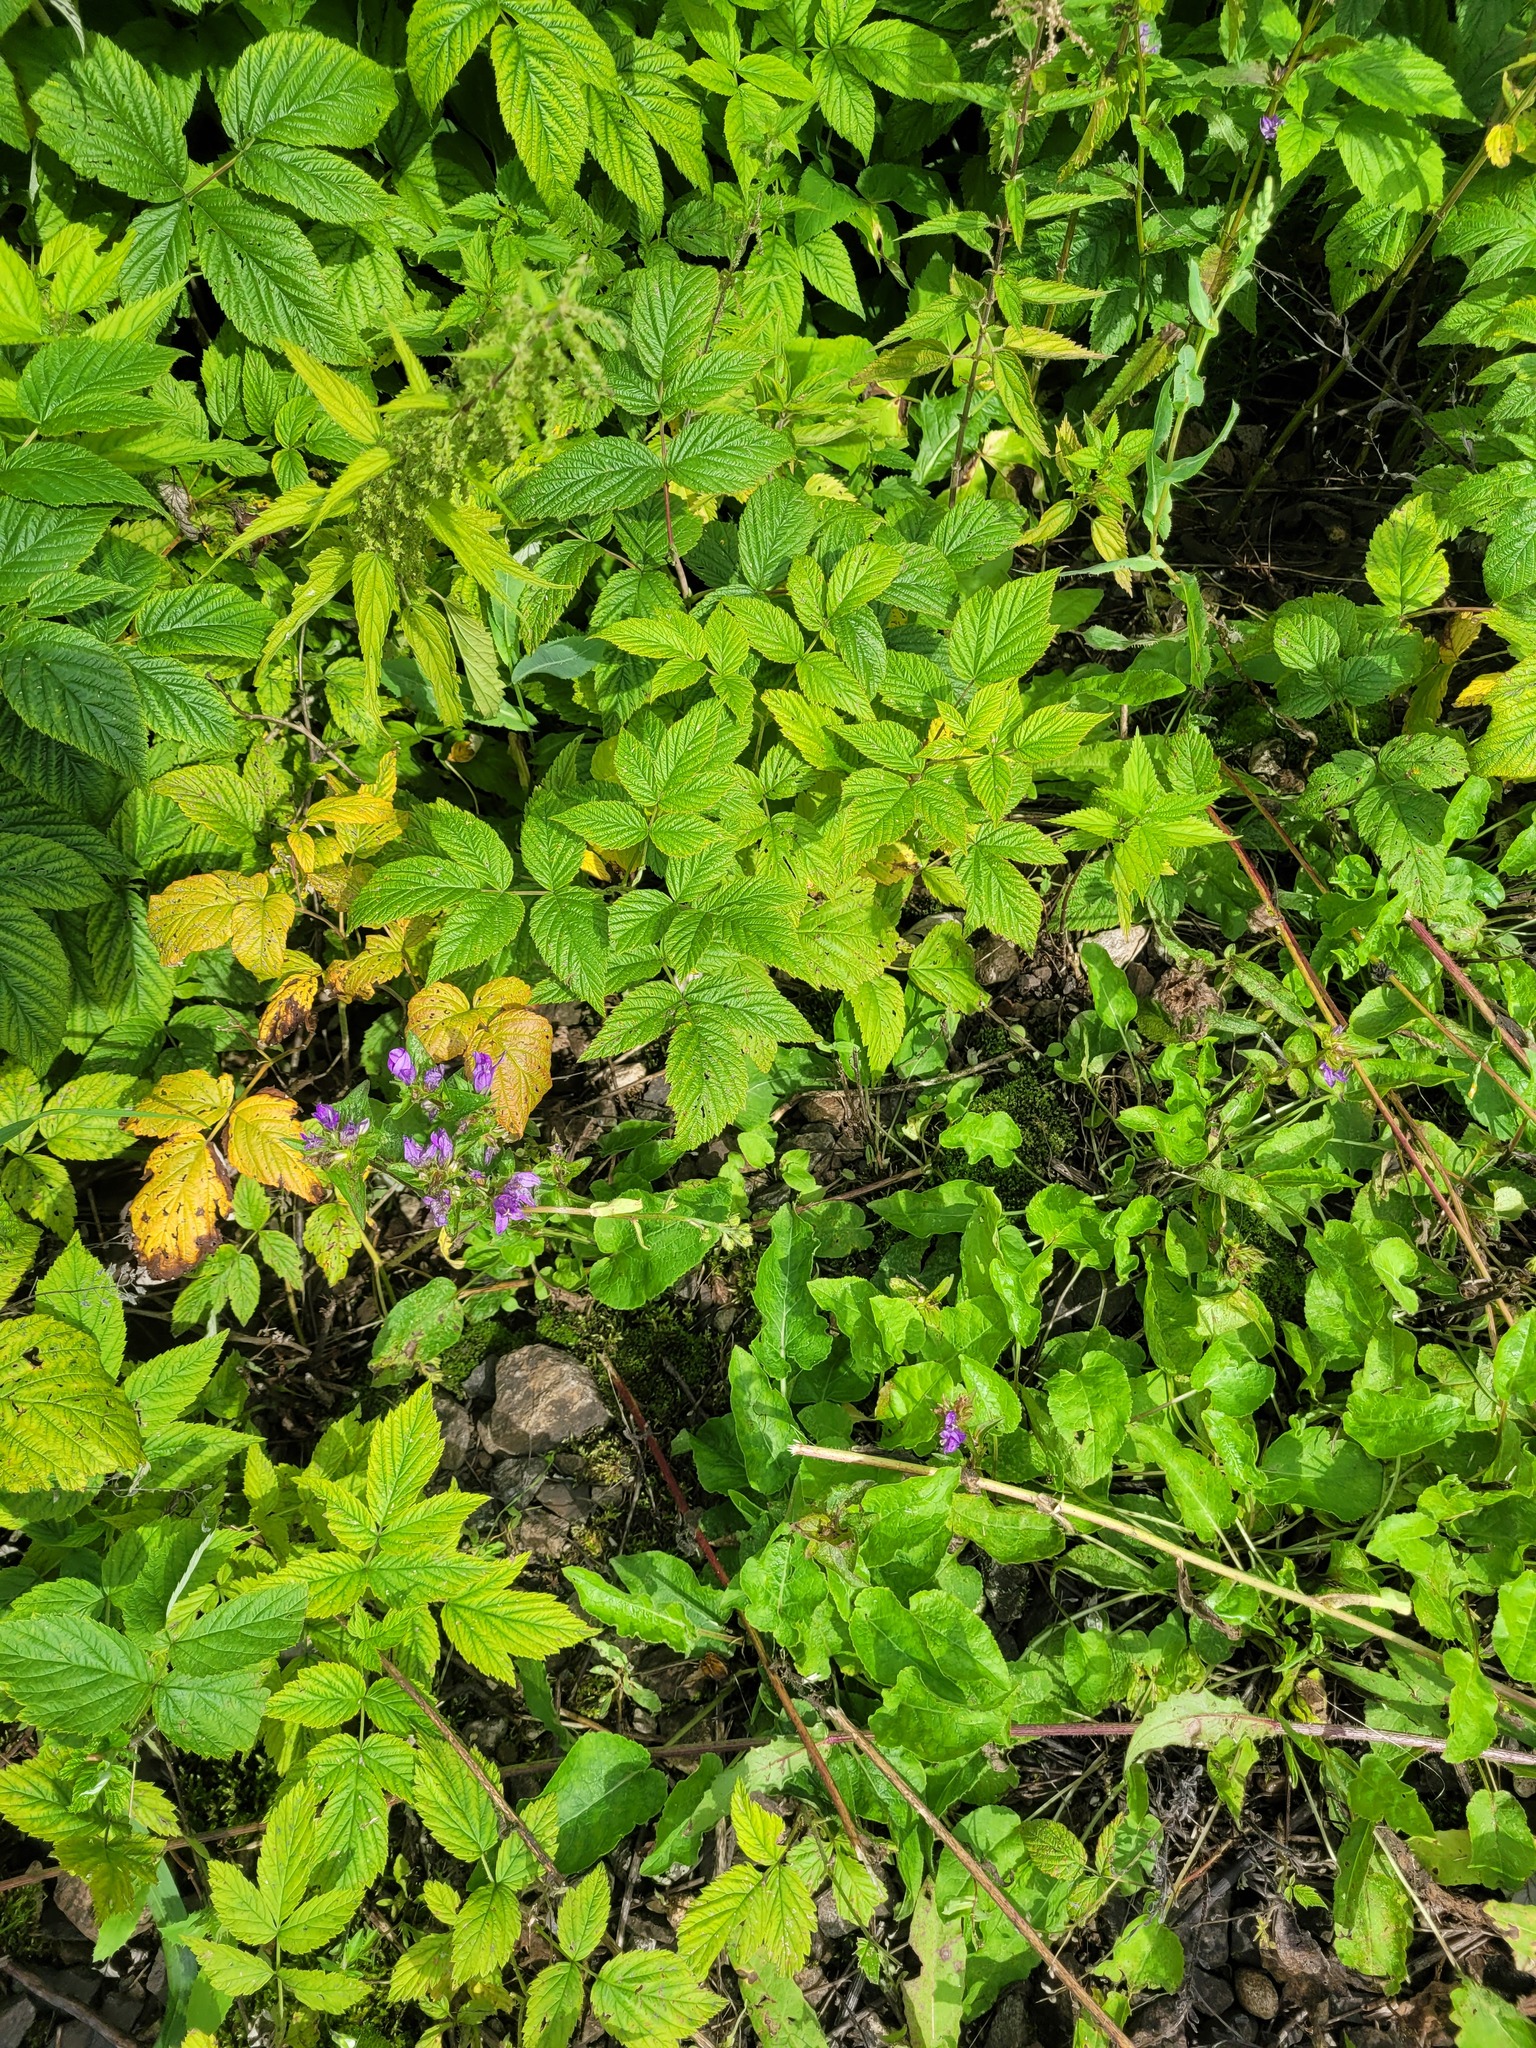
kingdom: Plantae
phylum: Tracheophyta
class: Magnoliopsida
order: Asterales
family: Campanulaceae
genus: Campanula
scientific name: Campanula glomerata
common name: Clustered bellflower
